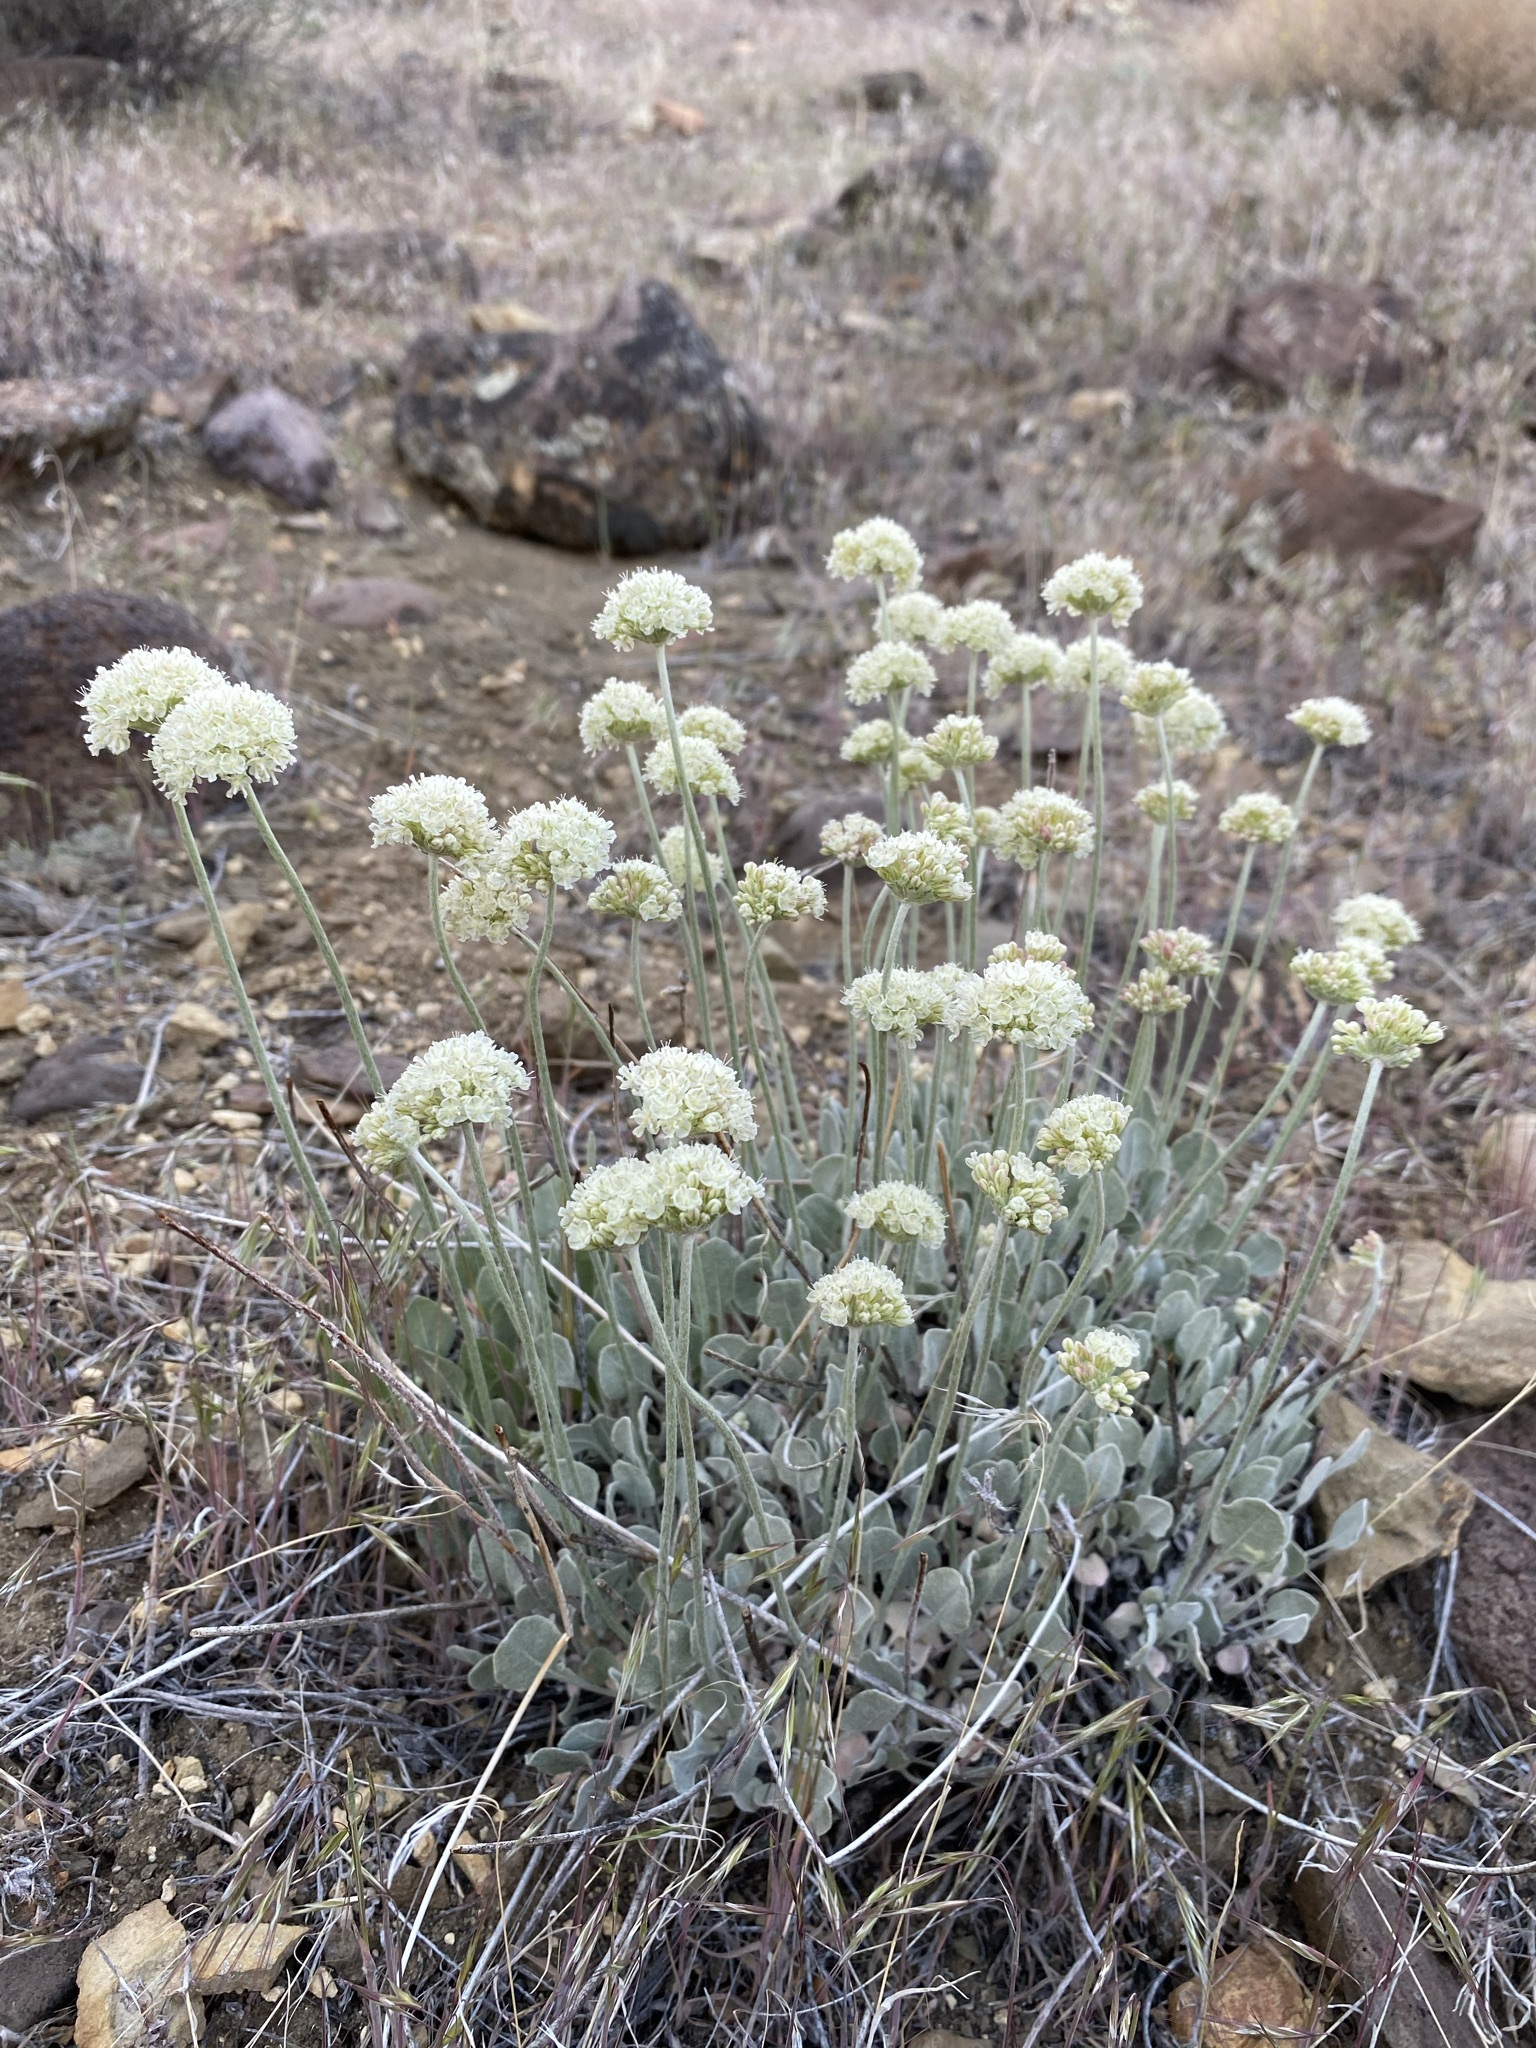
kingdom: Plantae
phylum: Tracheophyta
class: Magnoliopsida
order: Caryophyllales
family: Polygonaceae
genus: Eriogonum
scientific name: Eriogonum ovalifolium
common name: Cushion buckwheat
